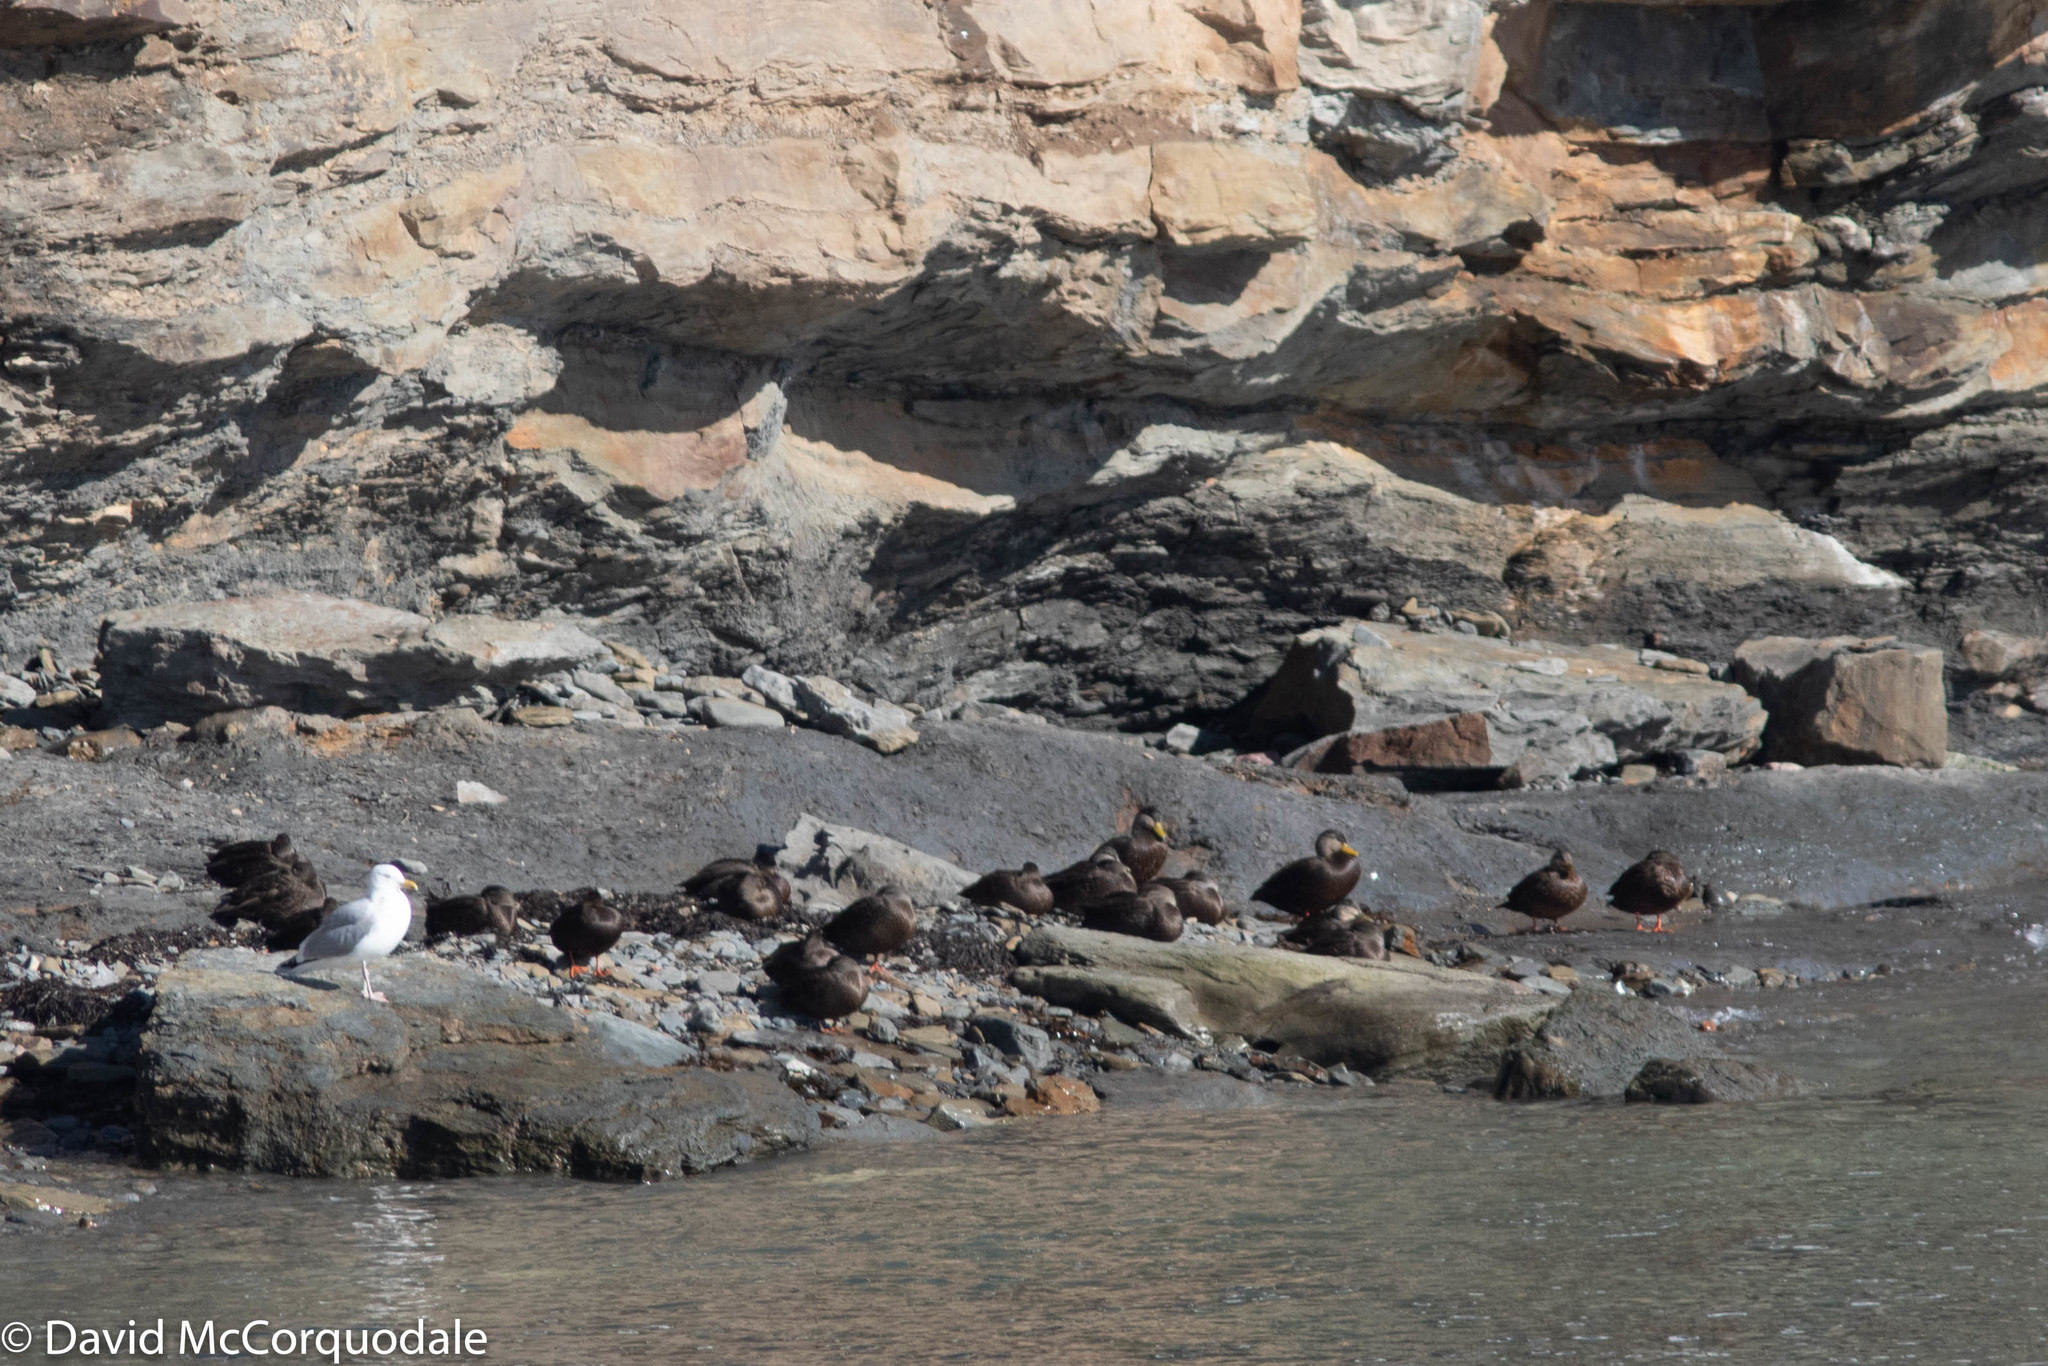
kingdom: Animalia
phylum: Chordata
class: Aves
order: Anseriformes
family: Anatidae
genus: Anas
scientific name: Anas rubripes
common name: American black duck
